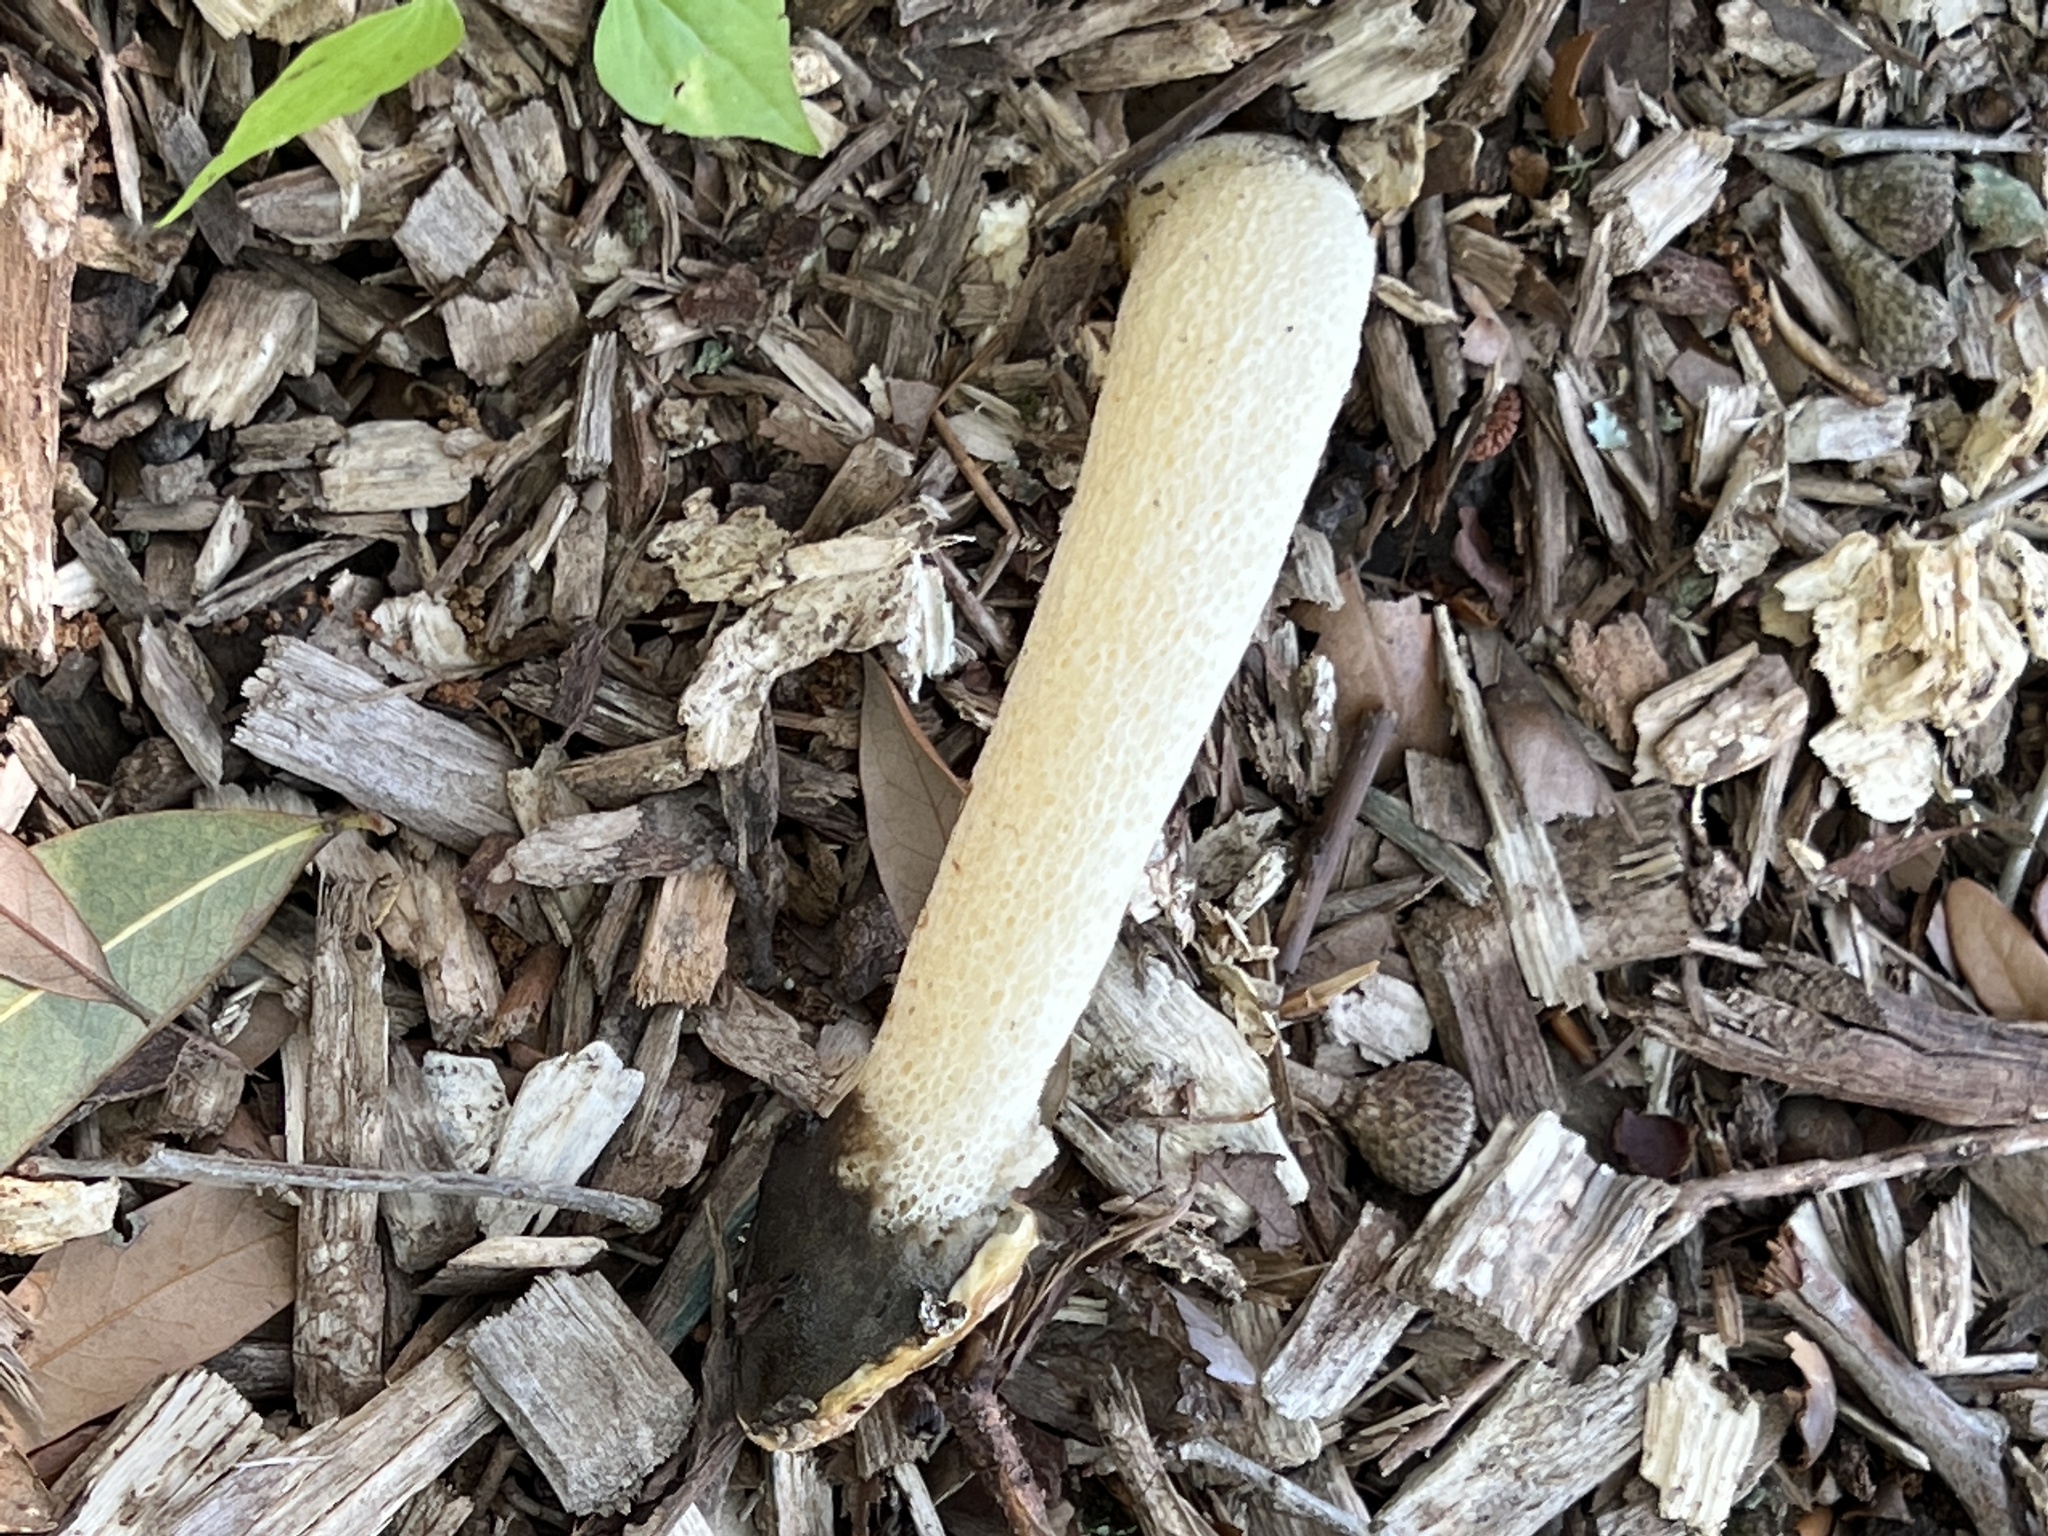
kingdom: Fungi
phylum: Basidiomycota
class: Agaricomycetes
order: Phallales
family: Phallaceae
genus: Phallus
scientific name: Phallus ravenelii
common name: Ravenel's stinkhorn
